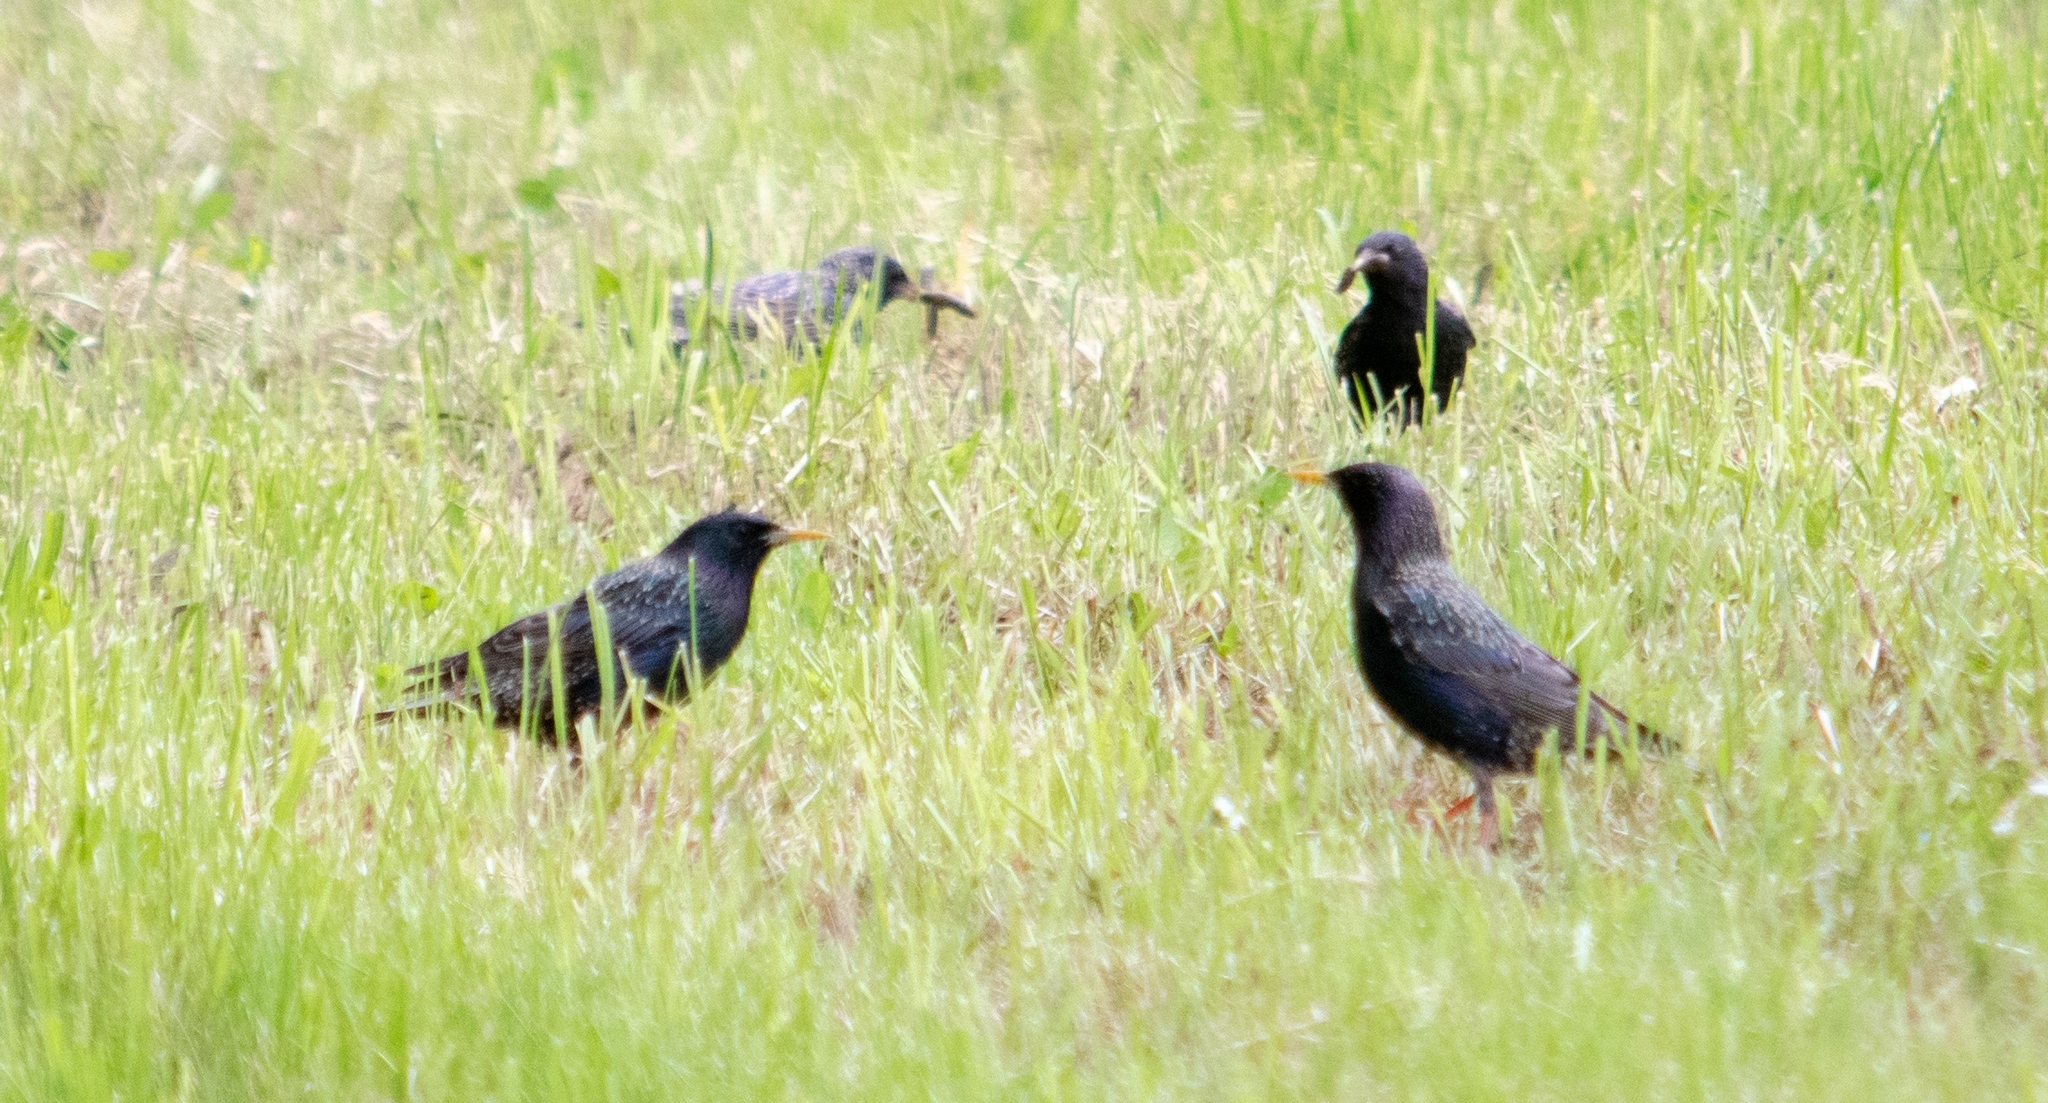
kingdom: Animalia
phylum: Chordata
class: Aves
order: Passeriformes
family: Sturnidae
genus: Sturnus
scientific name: Sturnus vulgaris
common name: Common starling
